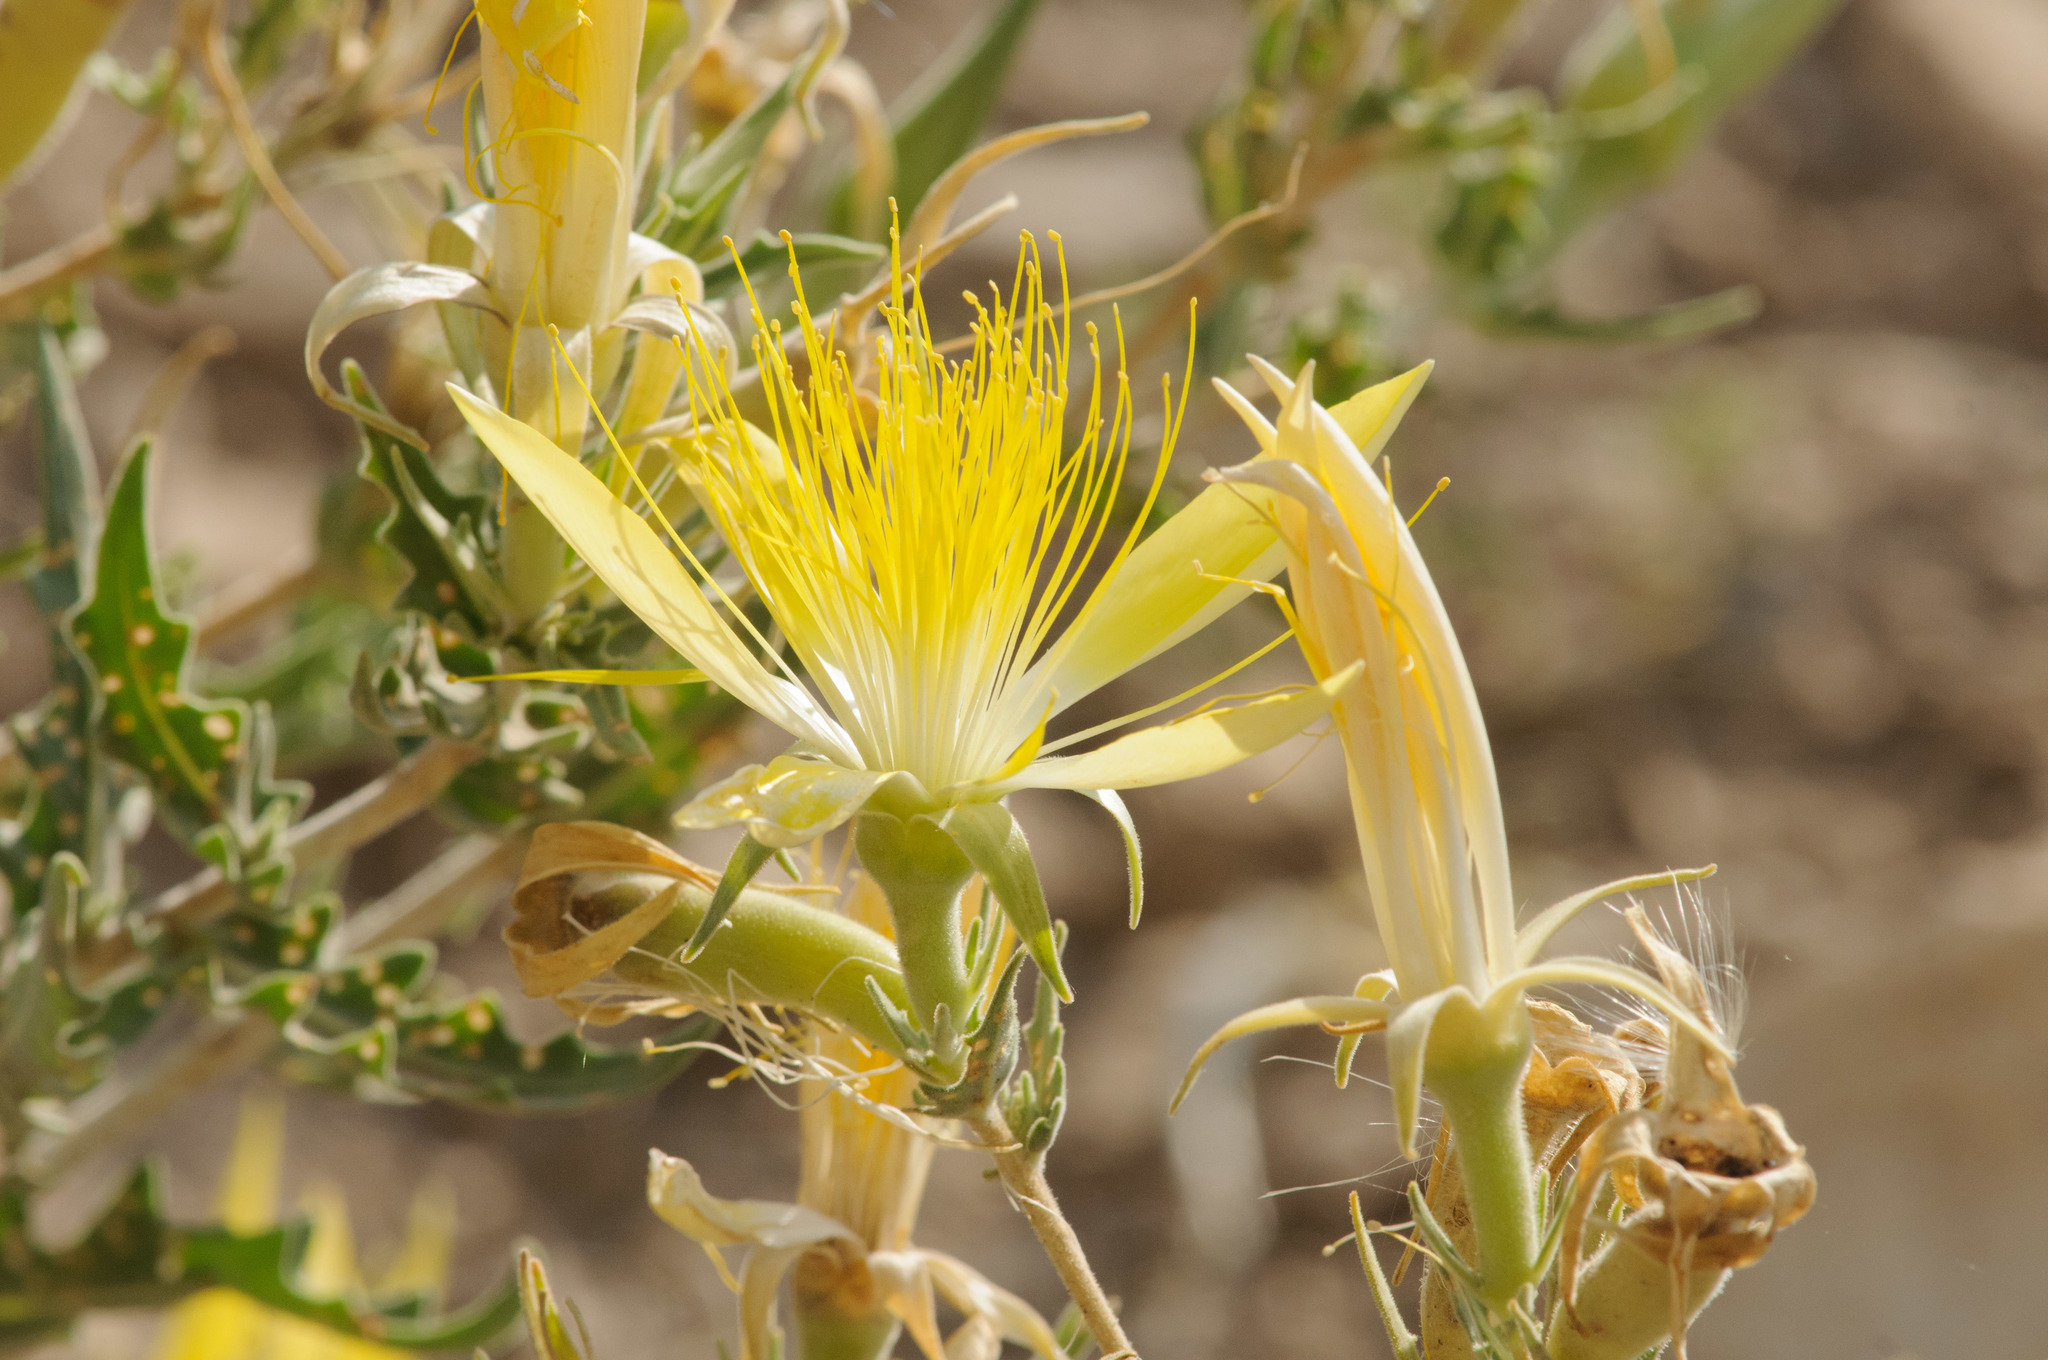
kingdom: Plantae
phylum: Tracheophyta
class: Magnoliopsida
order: Cornales
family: Loasaceae
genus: Mentzelia
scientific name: Mentzelia laevicaulis
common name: Smooth-stem blazingstar
